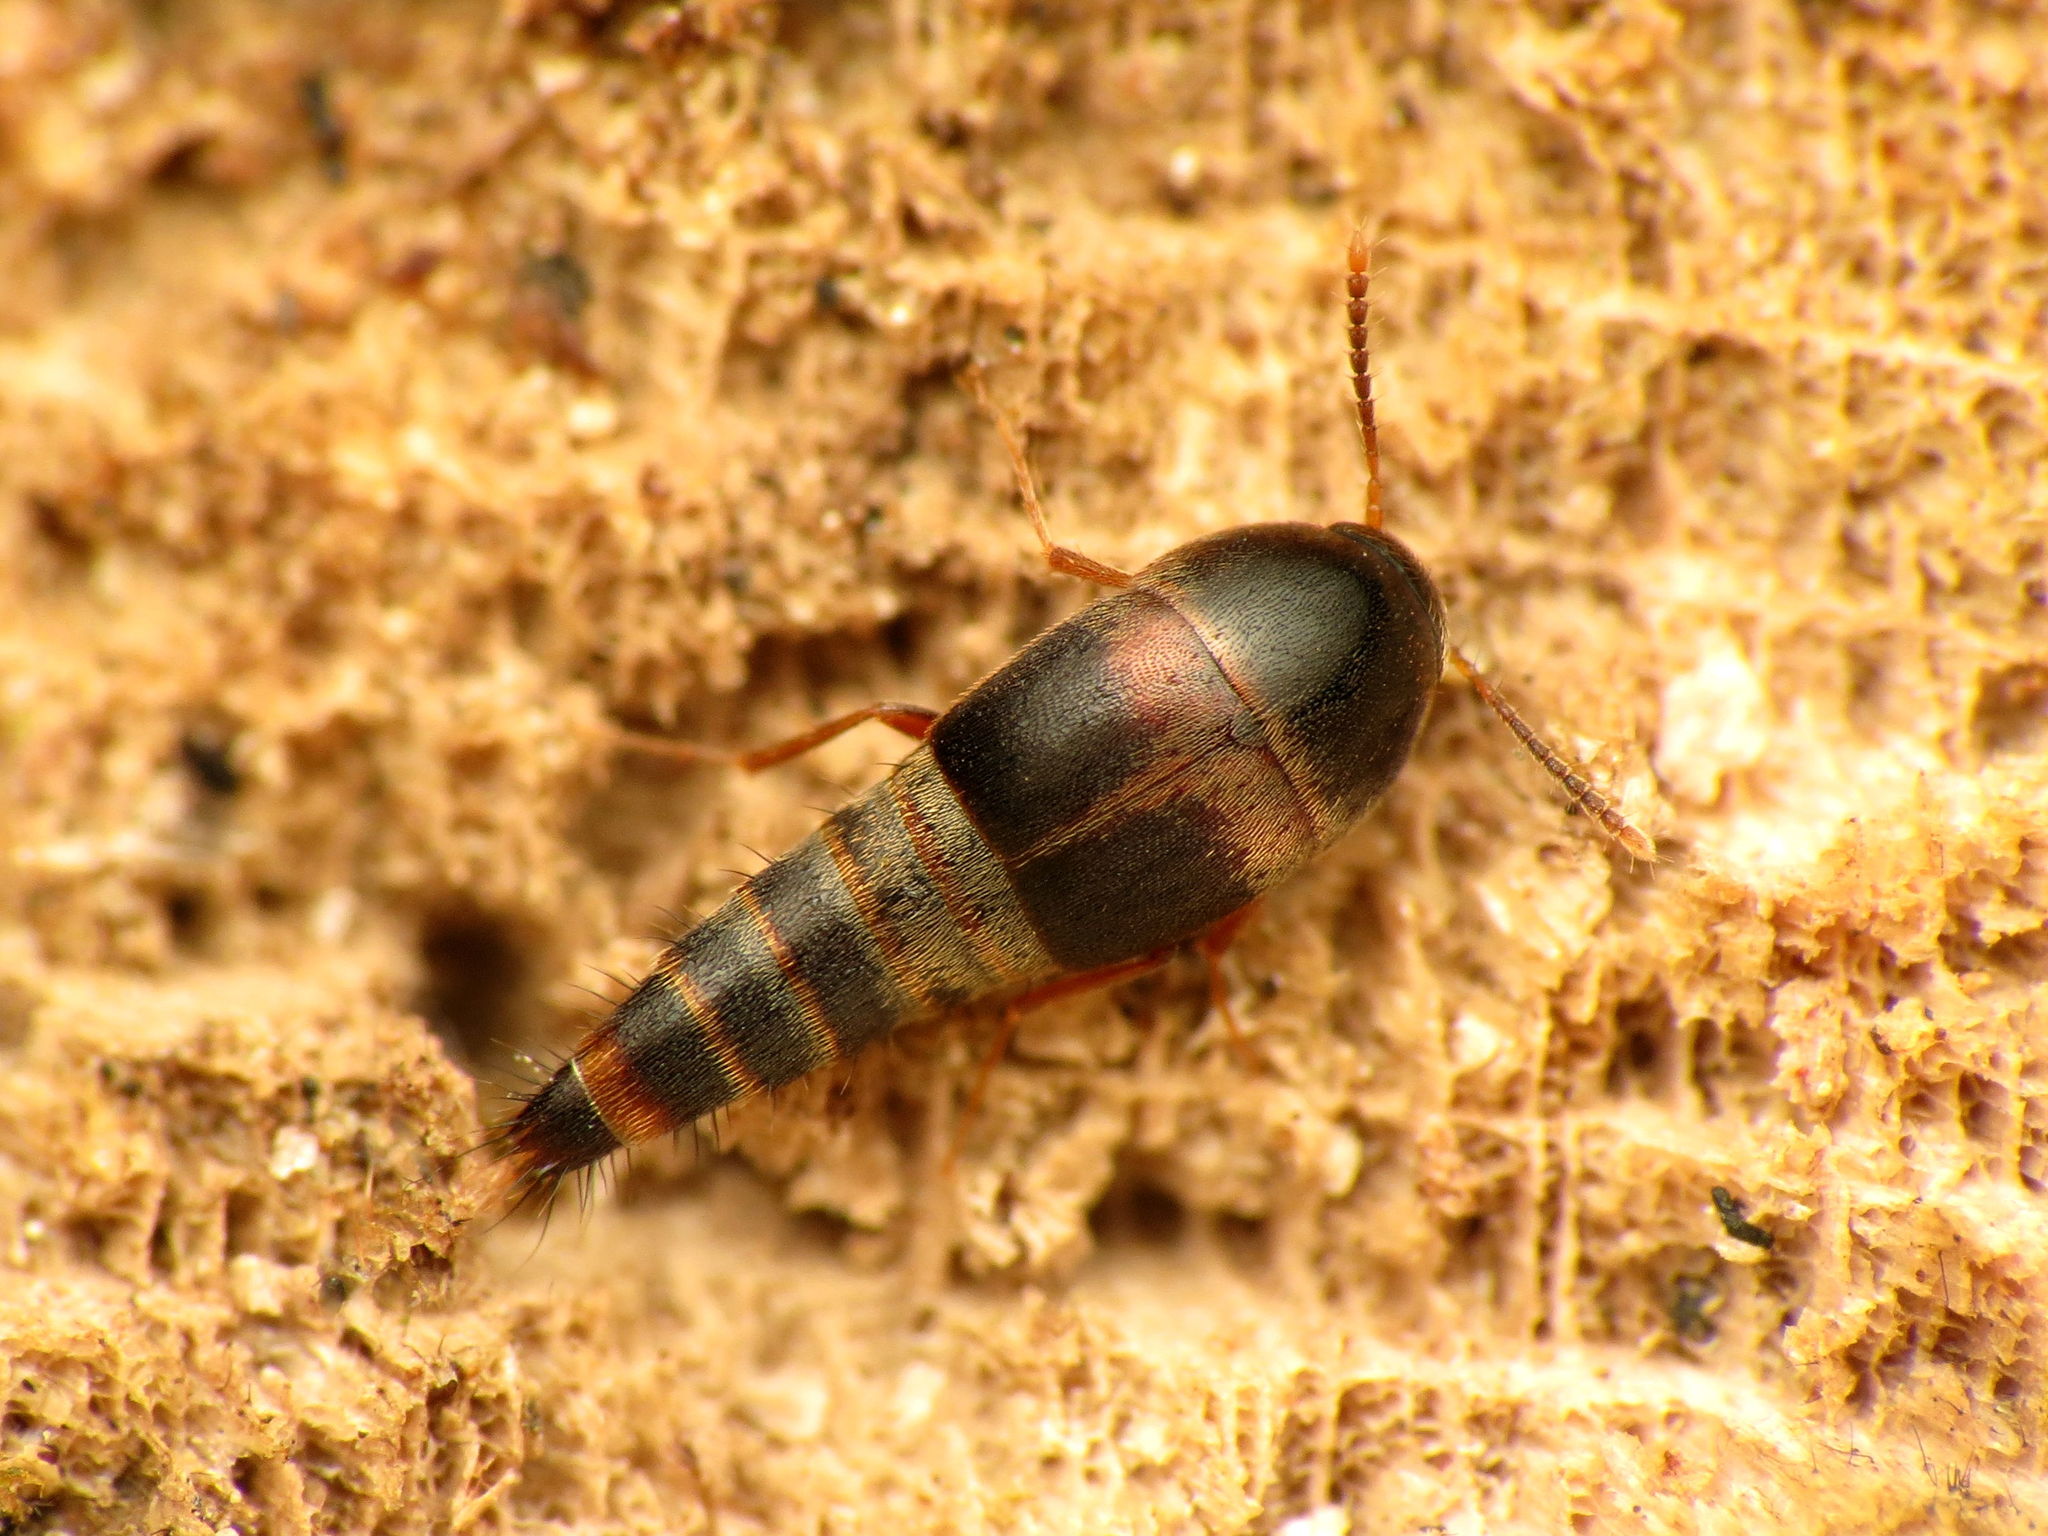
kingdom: Animalia
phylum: Arthropoda
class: Insecta
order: Coleoptera
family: Staphylinidae
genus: Sepedophilus
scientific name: Sepedophilus
